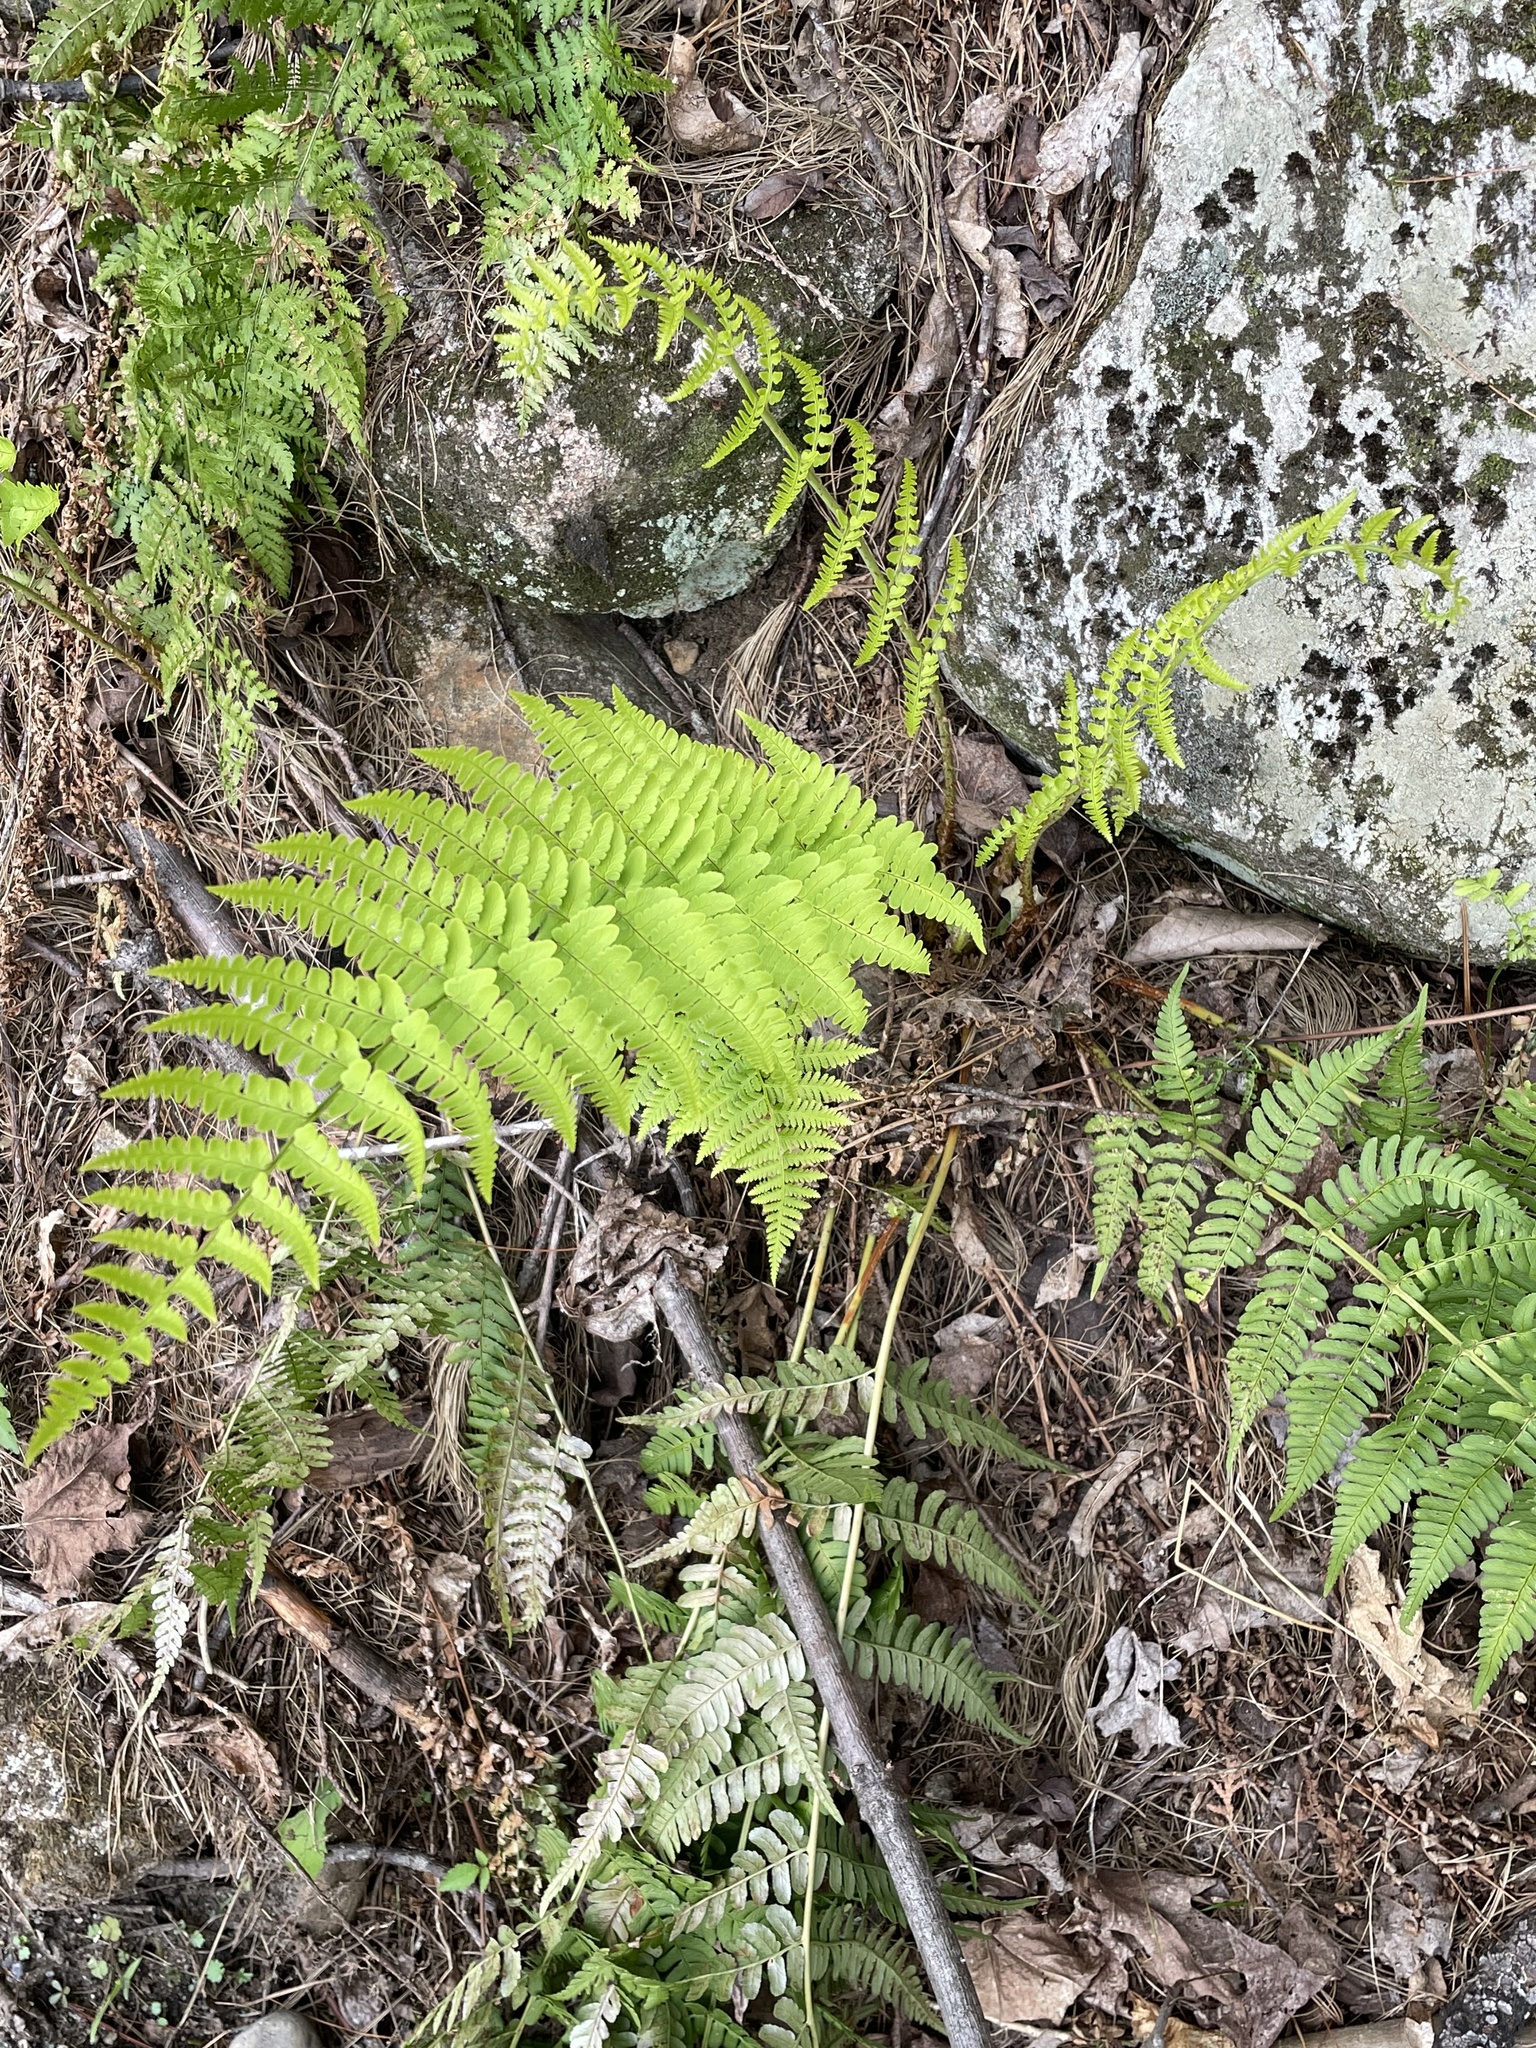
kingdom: Plantae
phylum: Tracheophyta
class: Polypodiopsida
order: Polypodiales
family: Dryopteridaceae
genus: Dryopteris
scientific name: Dryopteris marginalis
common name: Marginal wood fern
